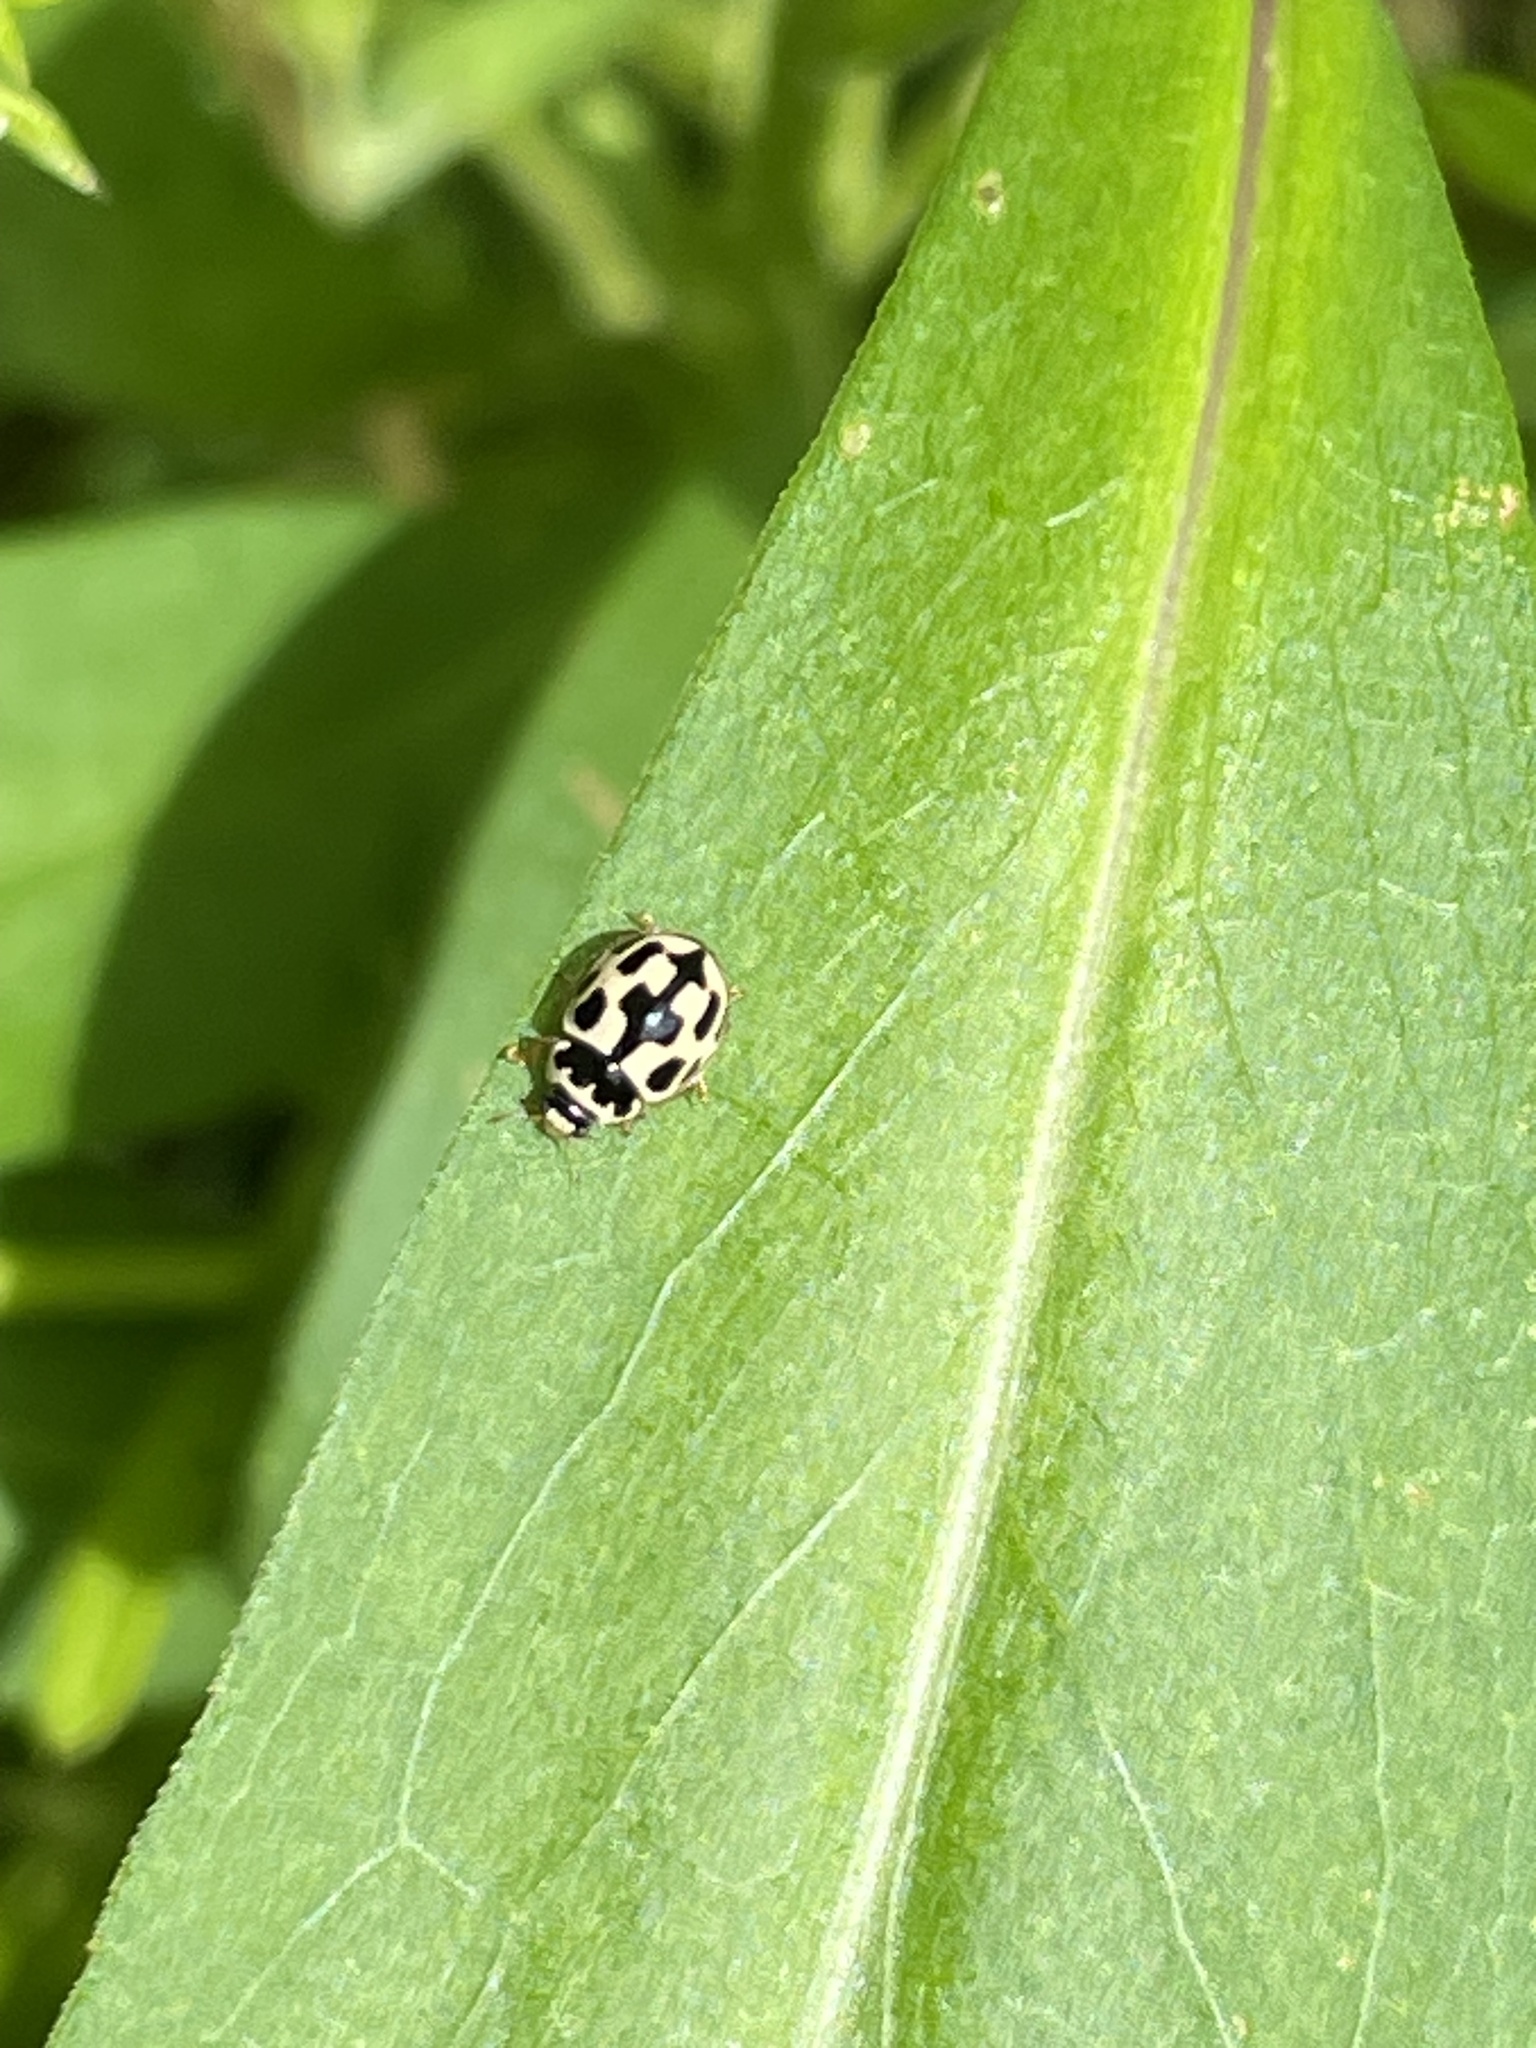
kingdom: Animalia
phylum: Arthropoda
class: Insecta
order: Coleoptera
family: Coccinellidae
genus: Propylaea
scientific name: Propylaea quatuordecimpunctata
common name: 14-spotted ladybird beetle
